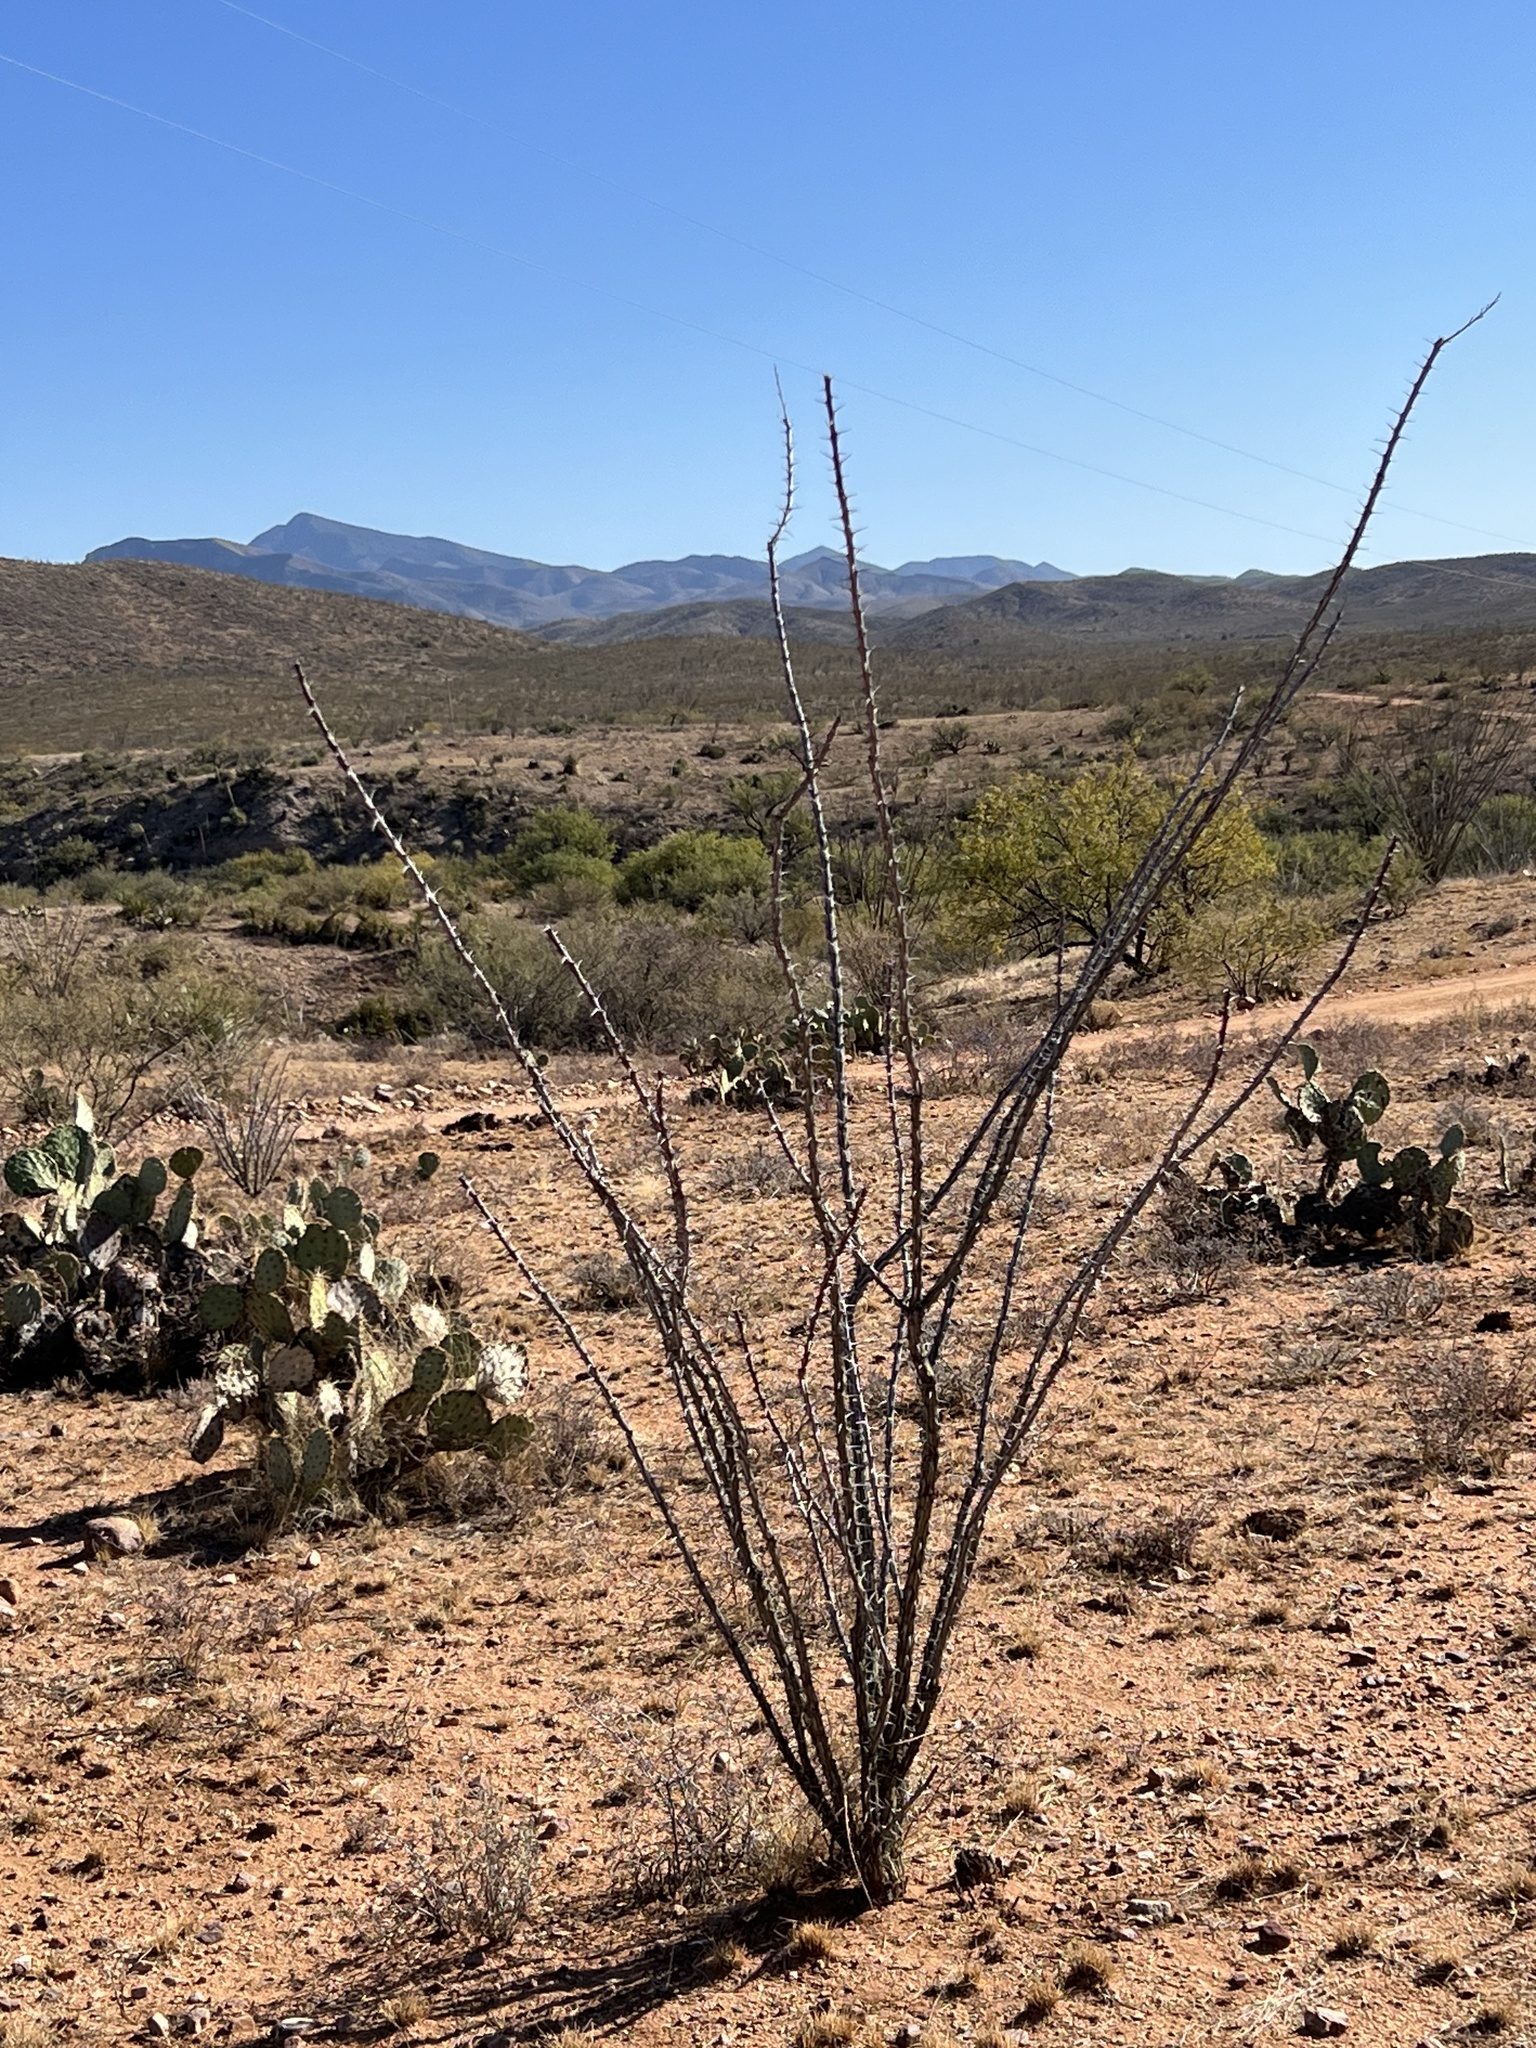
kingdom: Plantae
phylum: Tracheophyta
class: Magnoliopsida
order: Ericales
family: Fouquieriaceae
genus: Fouquieria
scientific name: Fouquieria splendens
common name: Vine-cactus
